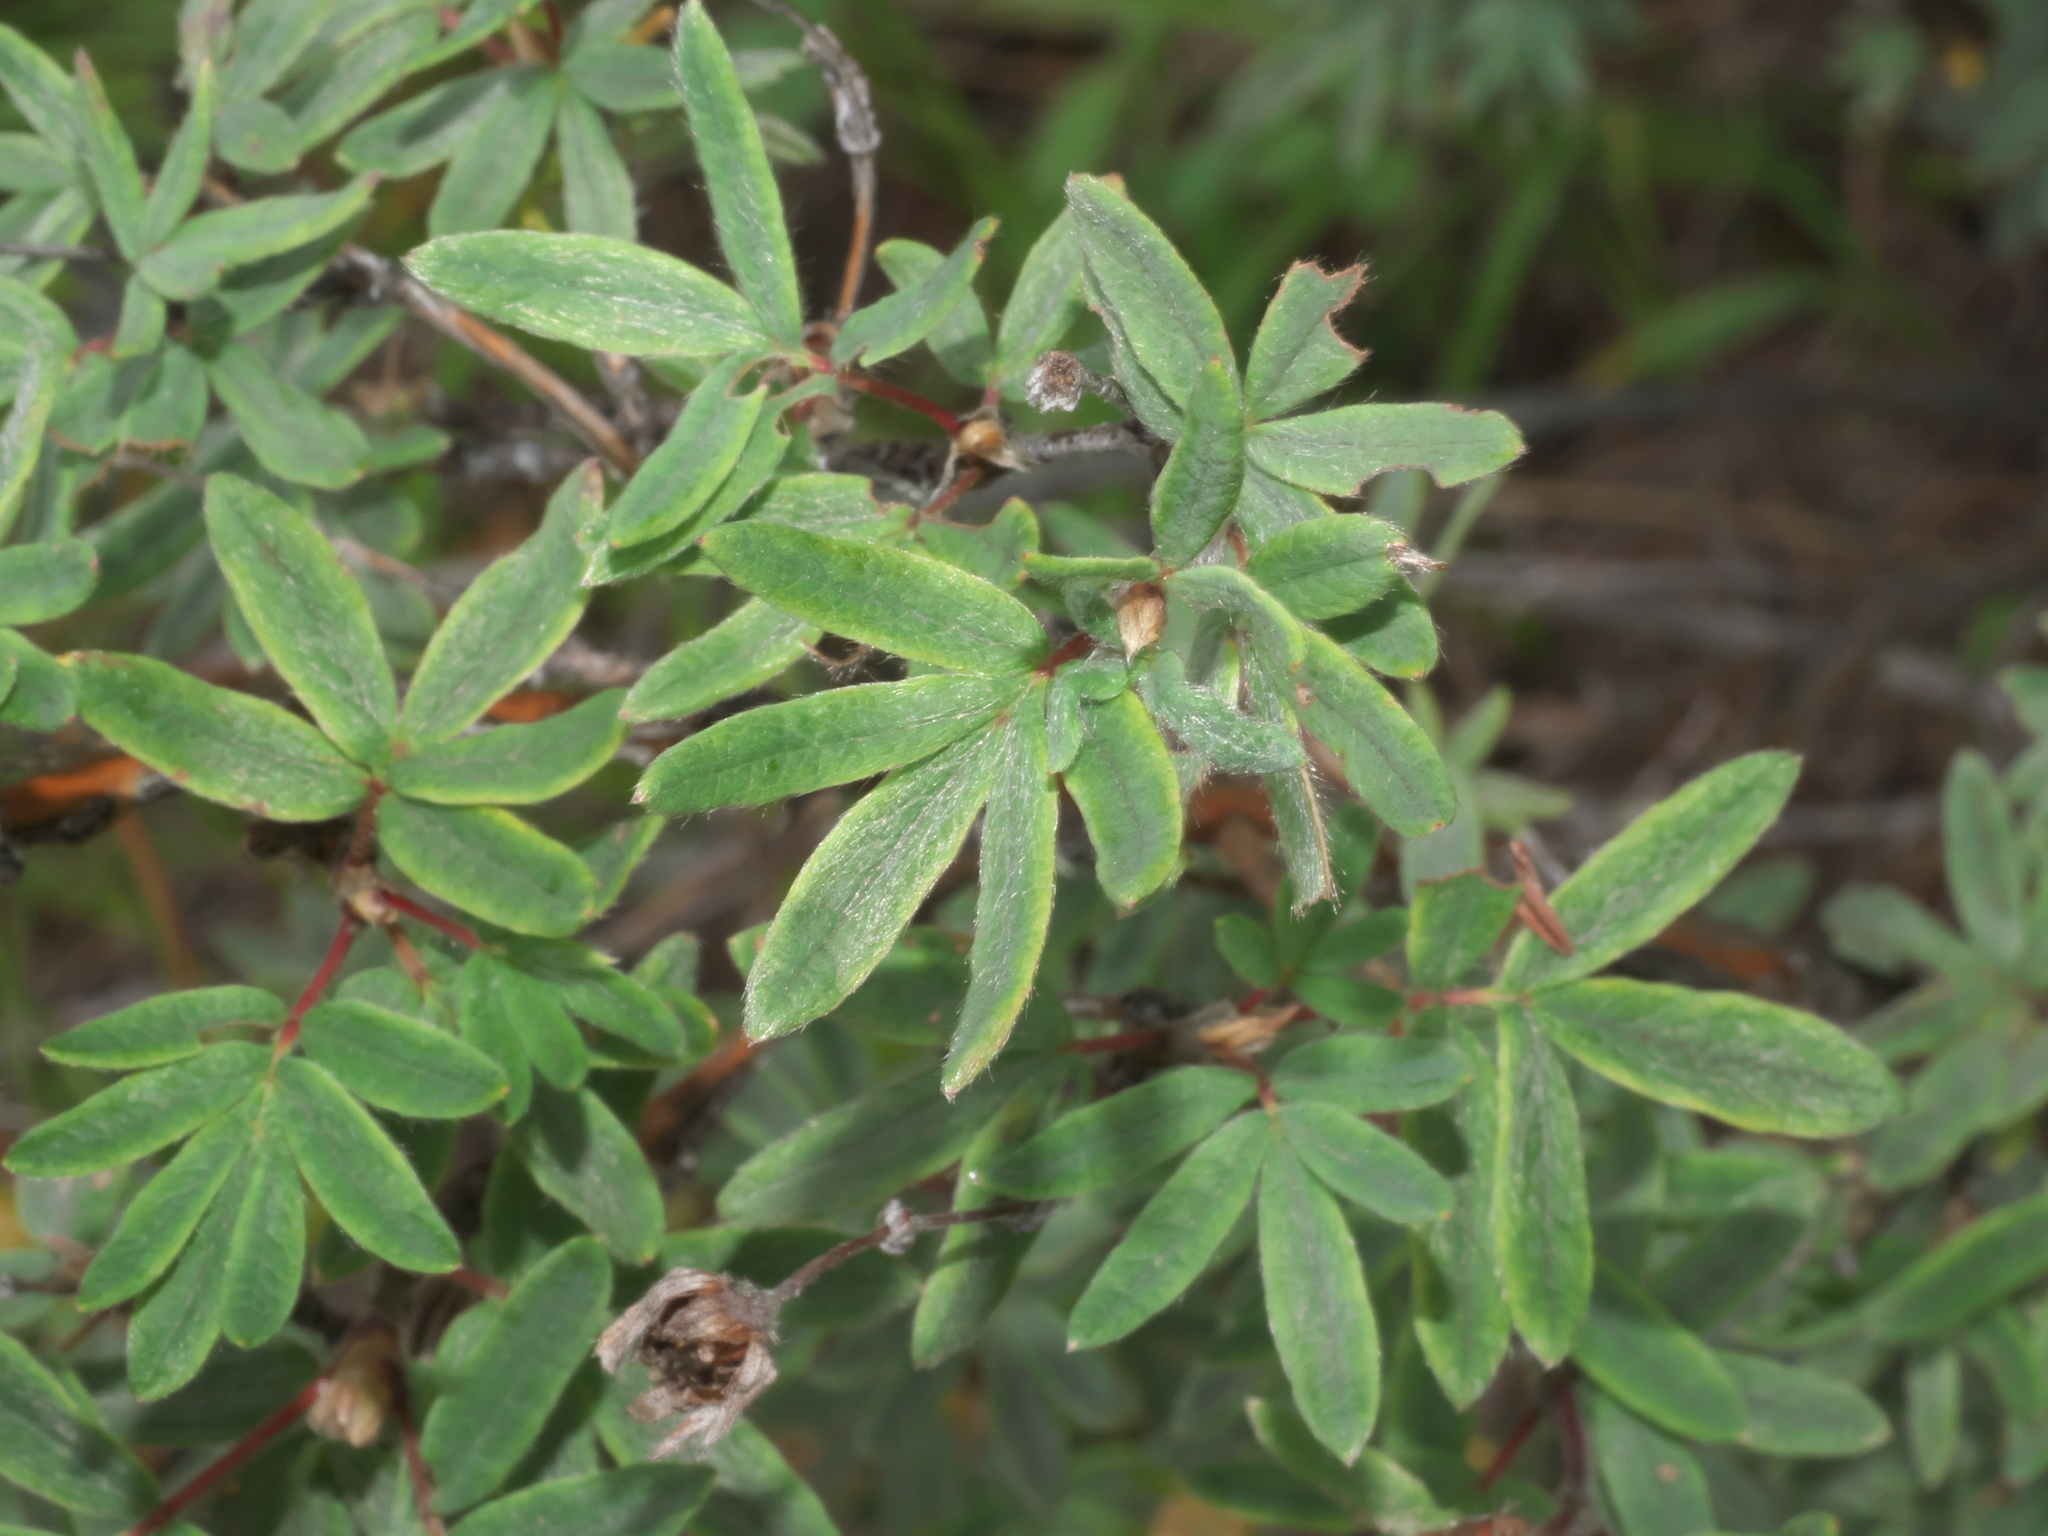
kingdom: Plantae
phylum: Tracheophyta
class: Magnoliopsida
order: Rosales
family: Rosaceae
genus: Dasiphora
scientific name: Dasiphora fruticosa
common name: Shrubby cinquefoil
